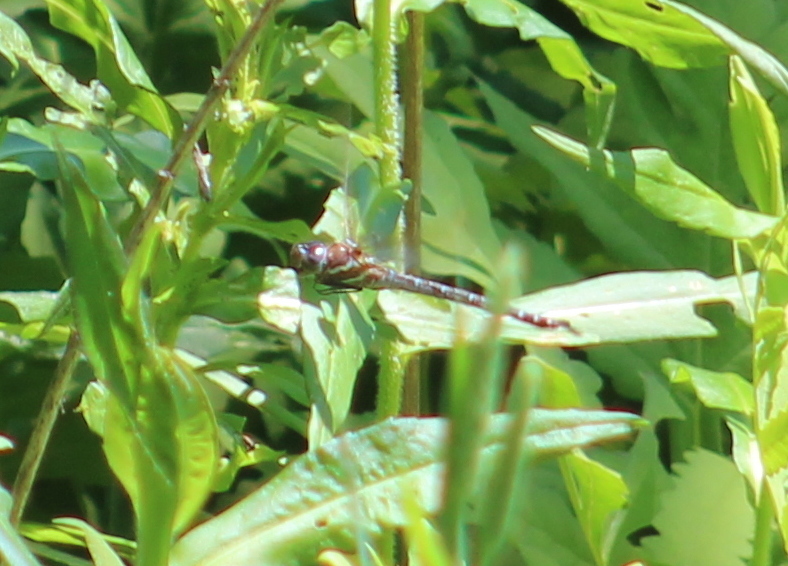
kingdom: Animalia
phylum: Arthropoda
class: Insecta
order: Odonata
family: Aeshnidae
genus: Rhionaeschna
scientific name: Rhionaeschna mutata
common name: Spatterdock darner
